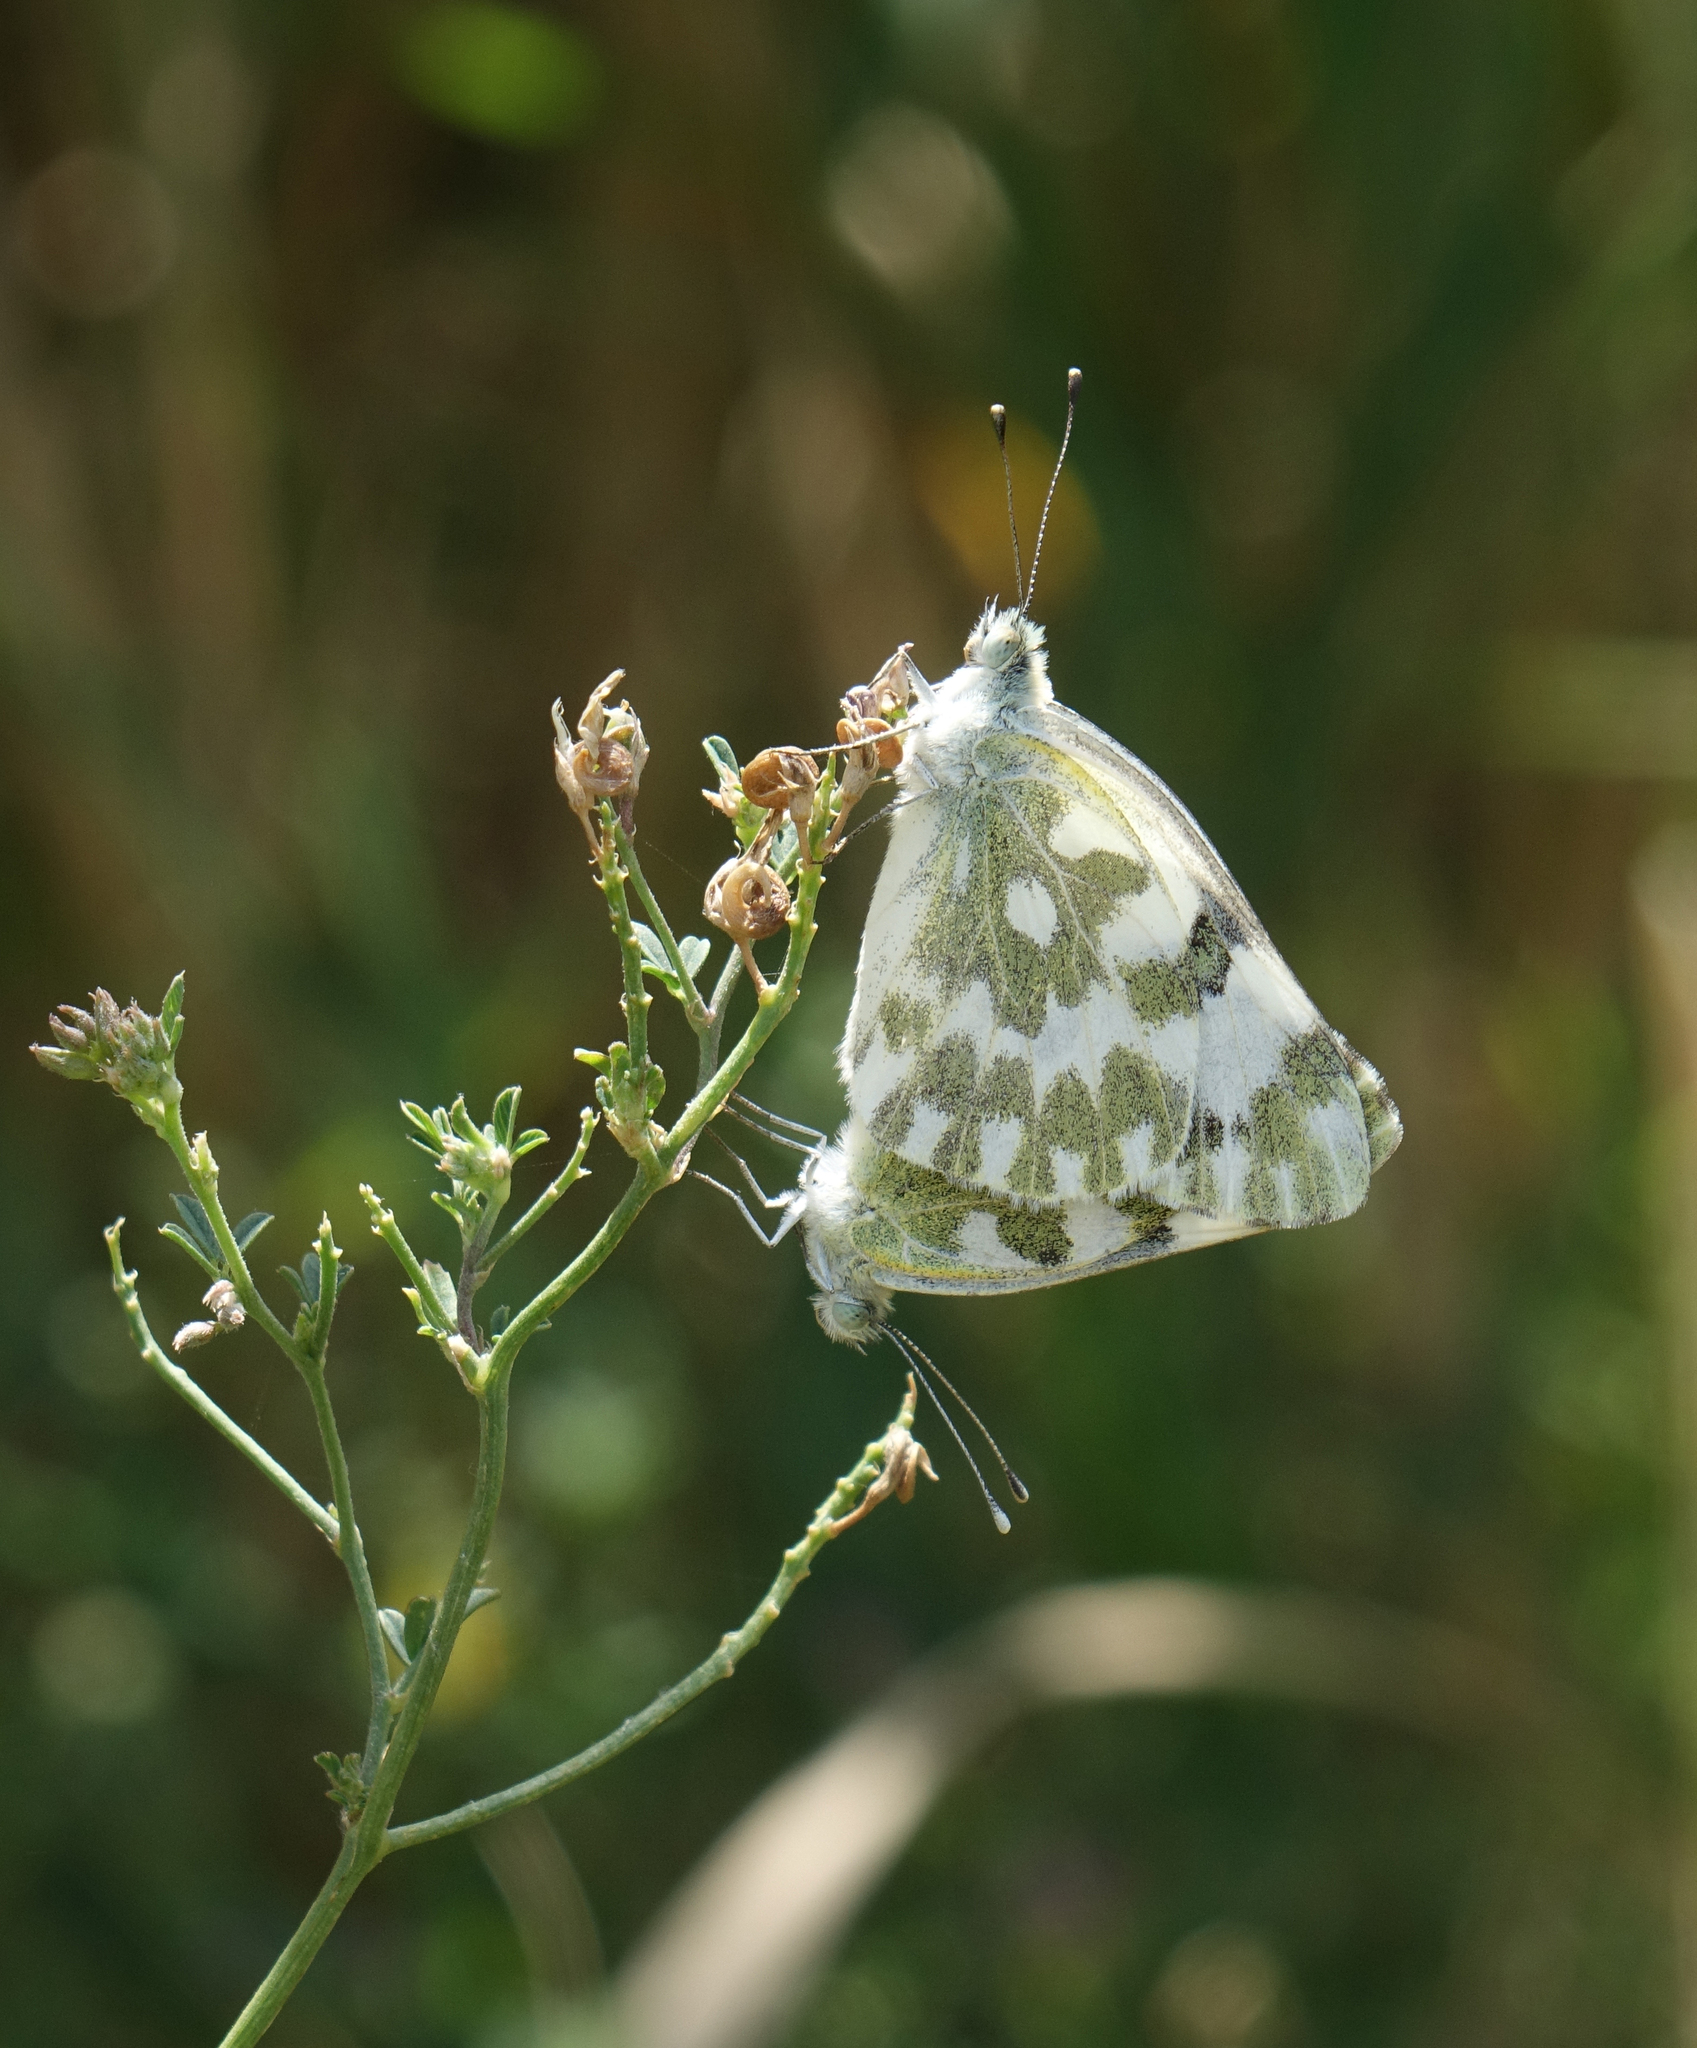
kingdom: Animalia
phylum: Arthropoda
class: Insecta
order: Lepidoptera
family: Pieridae
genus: Pontia
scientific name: Pontia edusa
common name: Eastern bath white
